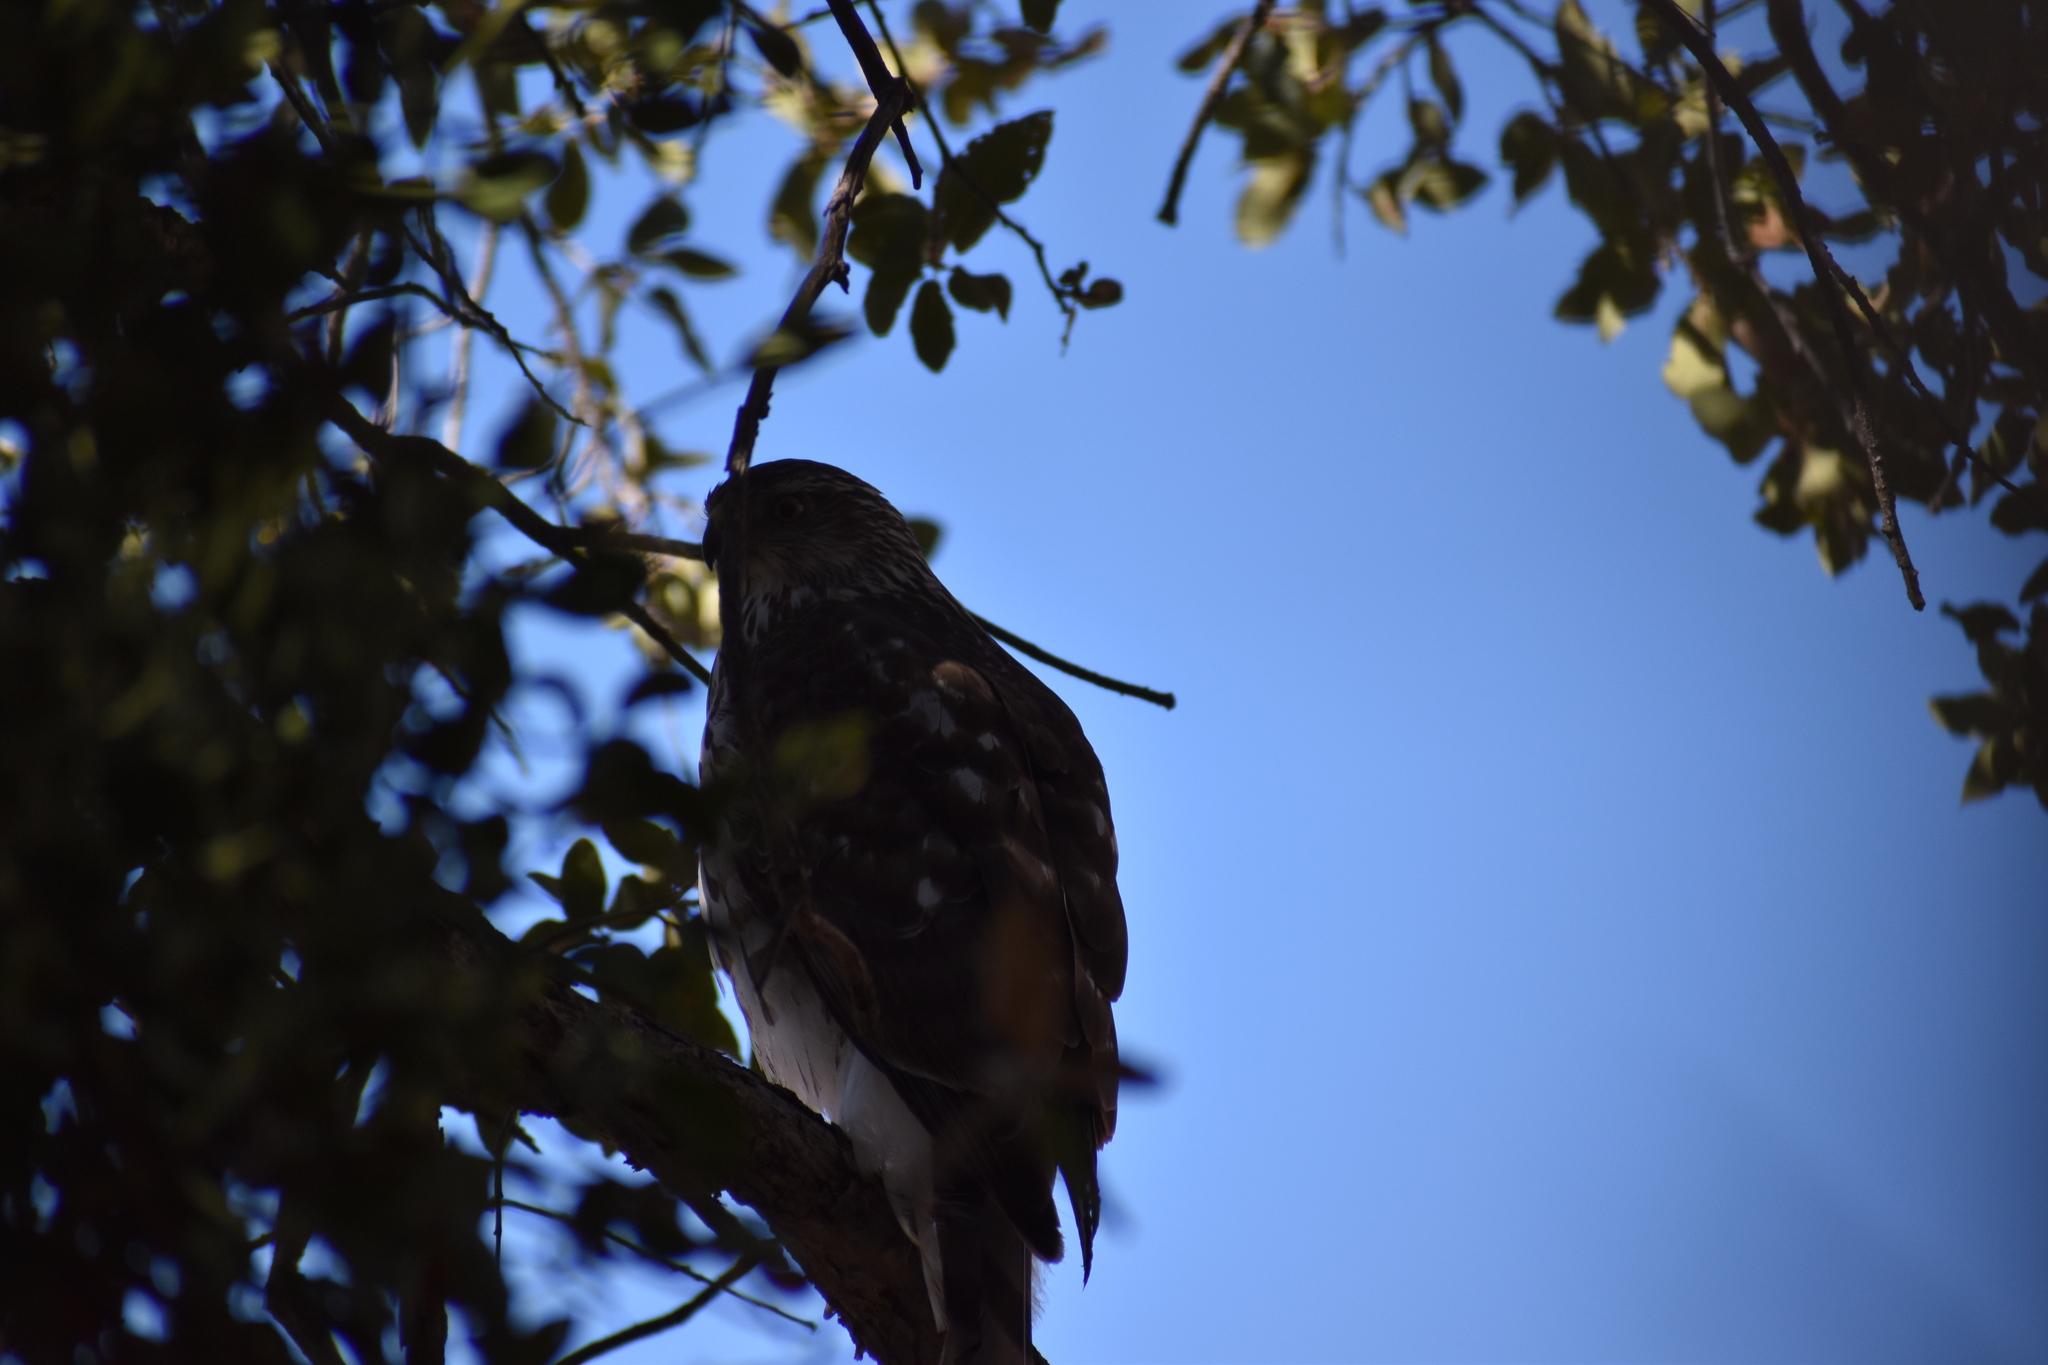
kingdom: Animalia
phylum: Chordata
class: Aves
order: Accipitriformes
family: Accipitridae
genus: Accipiter
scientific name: Accipiter cooperii
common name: Cooper's hawk
